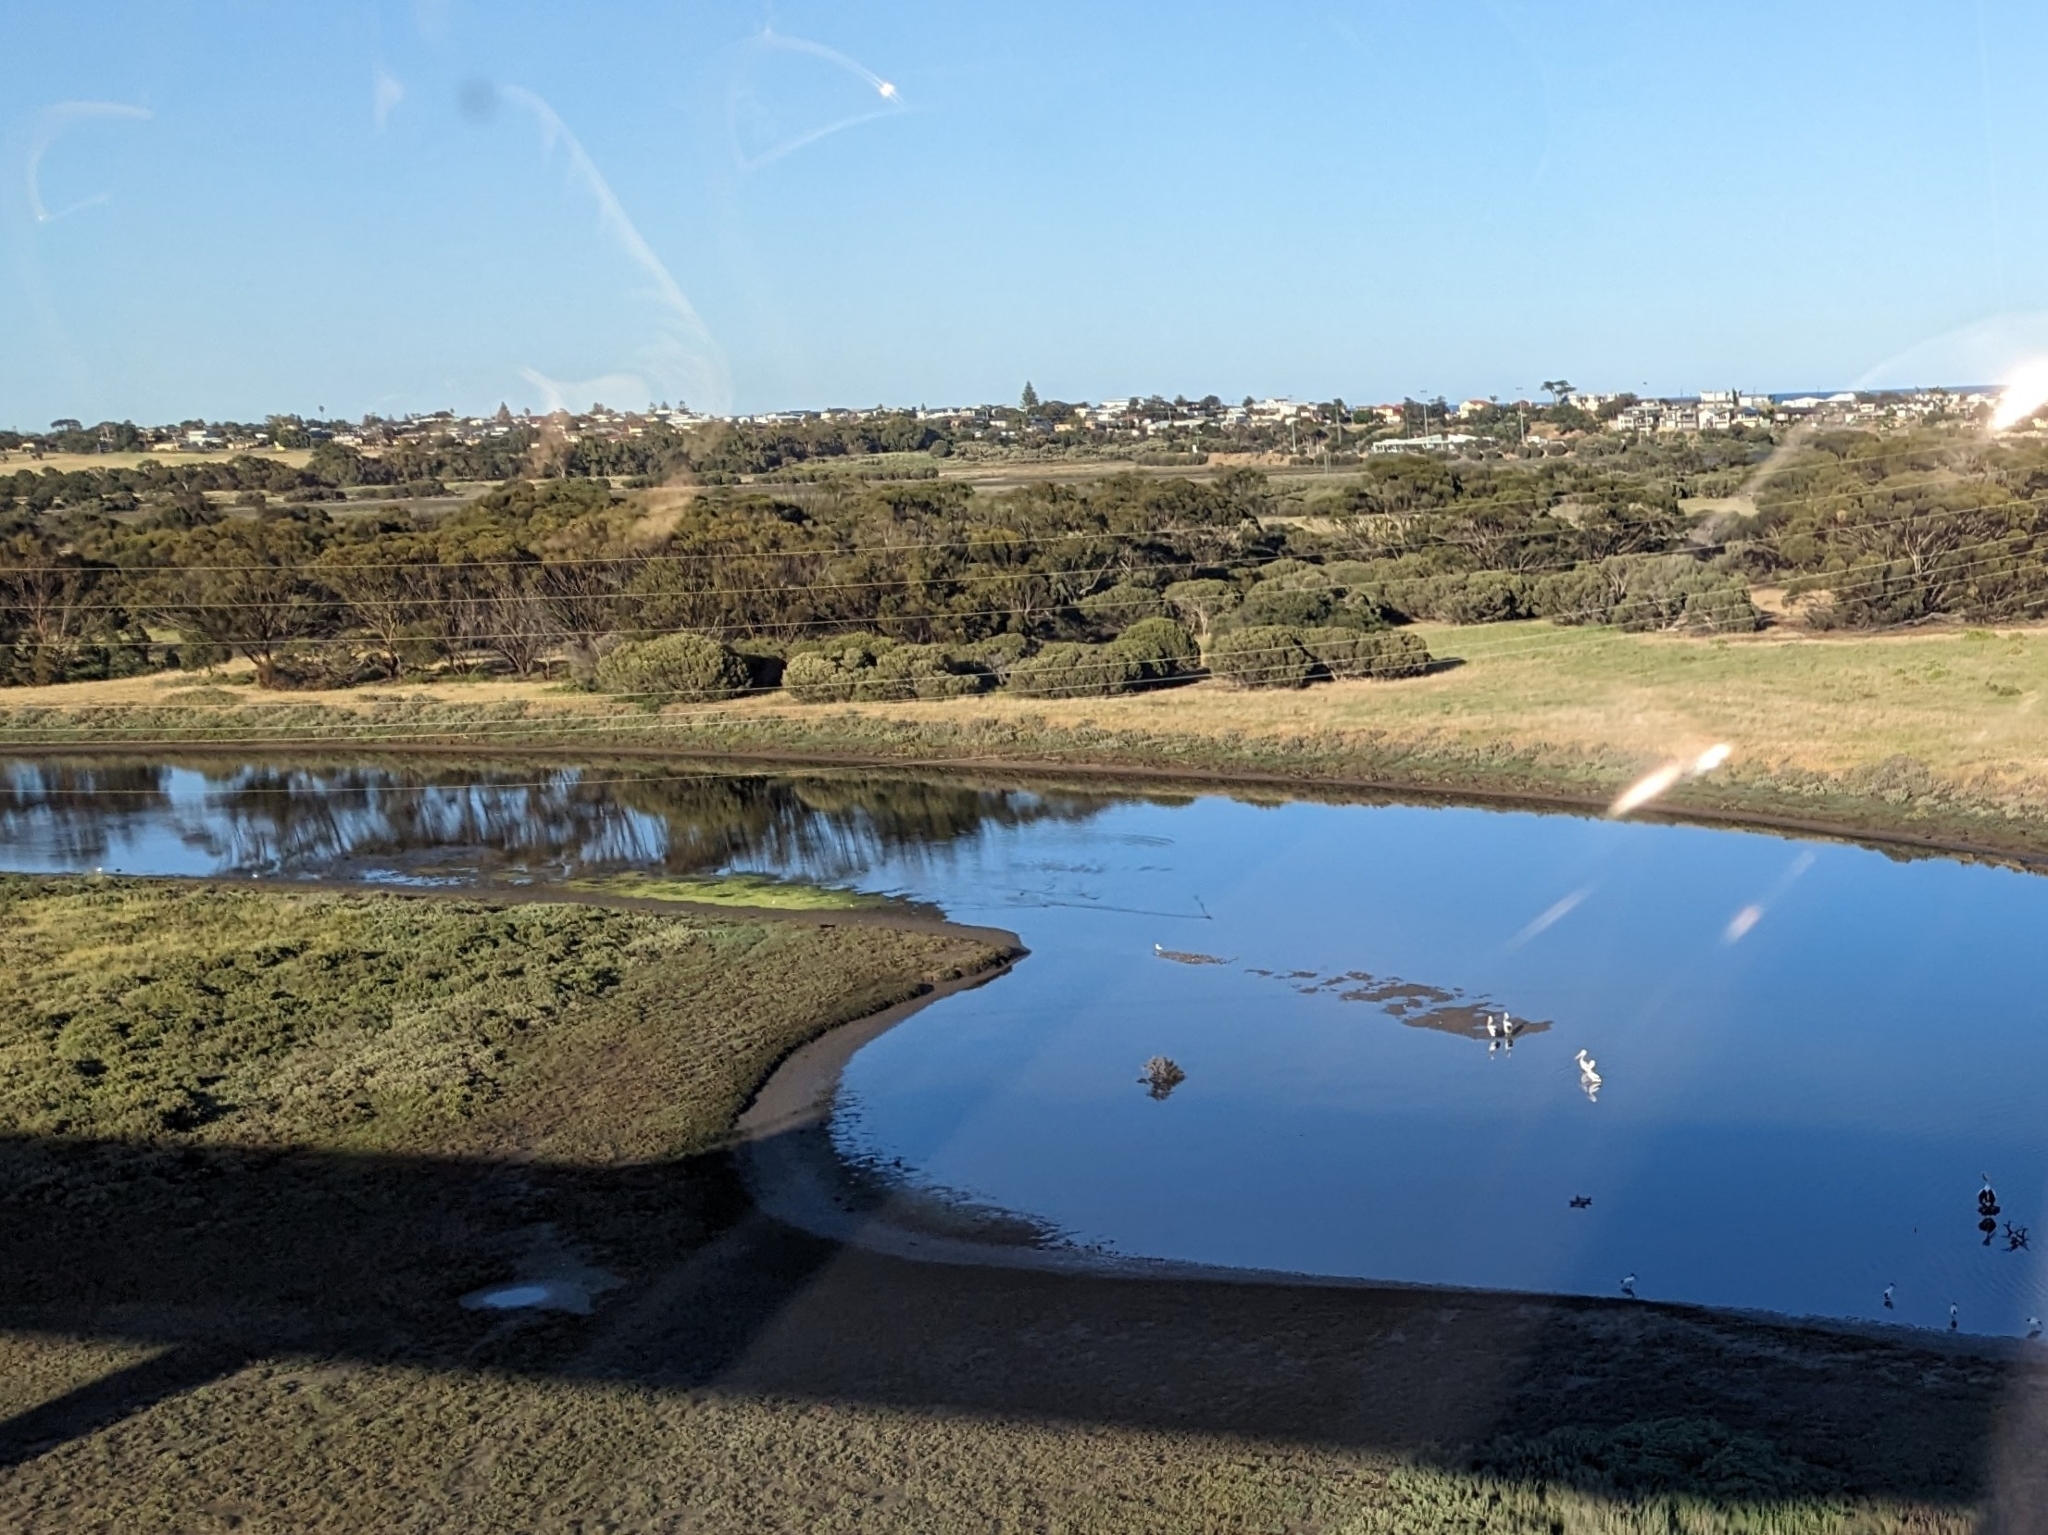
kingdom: Animalia
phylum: Chordata
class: Aves
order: Pelecaniformes
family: Pelecanidae
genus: Pelecanus
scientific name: Pelecanus conspicillatus
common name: Australian pelican
